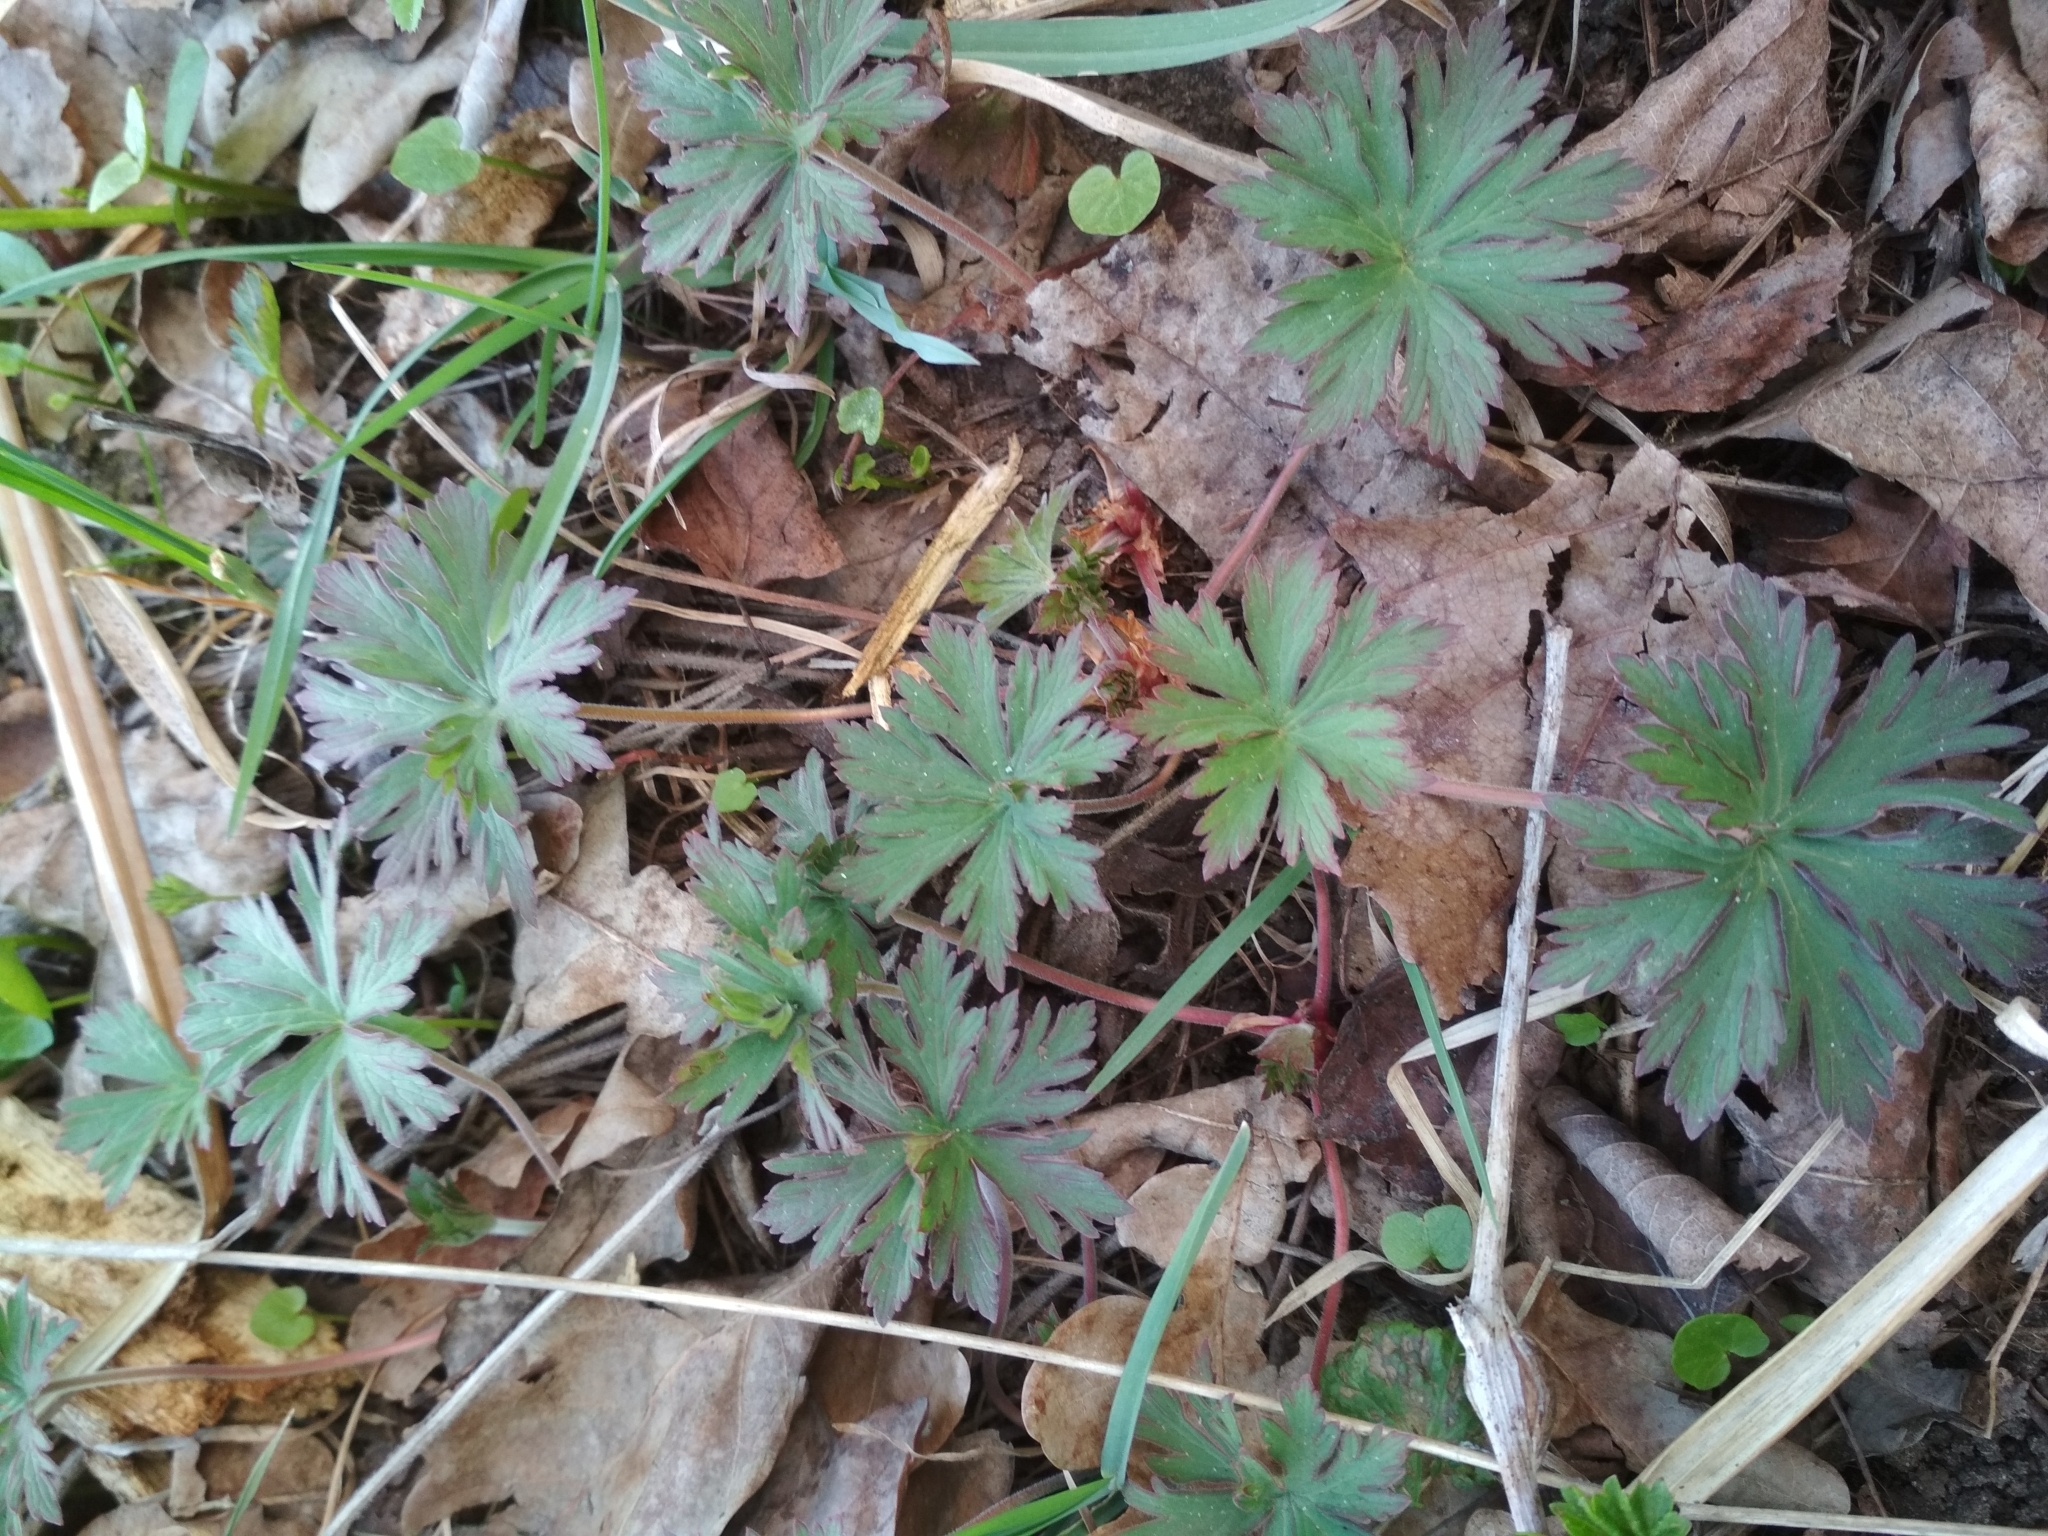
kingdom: Plantae
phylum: Tracheophyta
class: Magnoliopsida
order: Geraniales
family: Geraniaceae
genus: Geranium
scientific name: Geranium pratense
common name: Meadow crane's-bill
